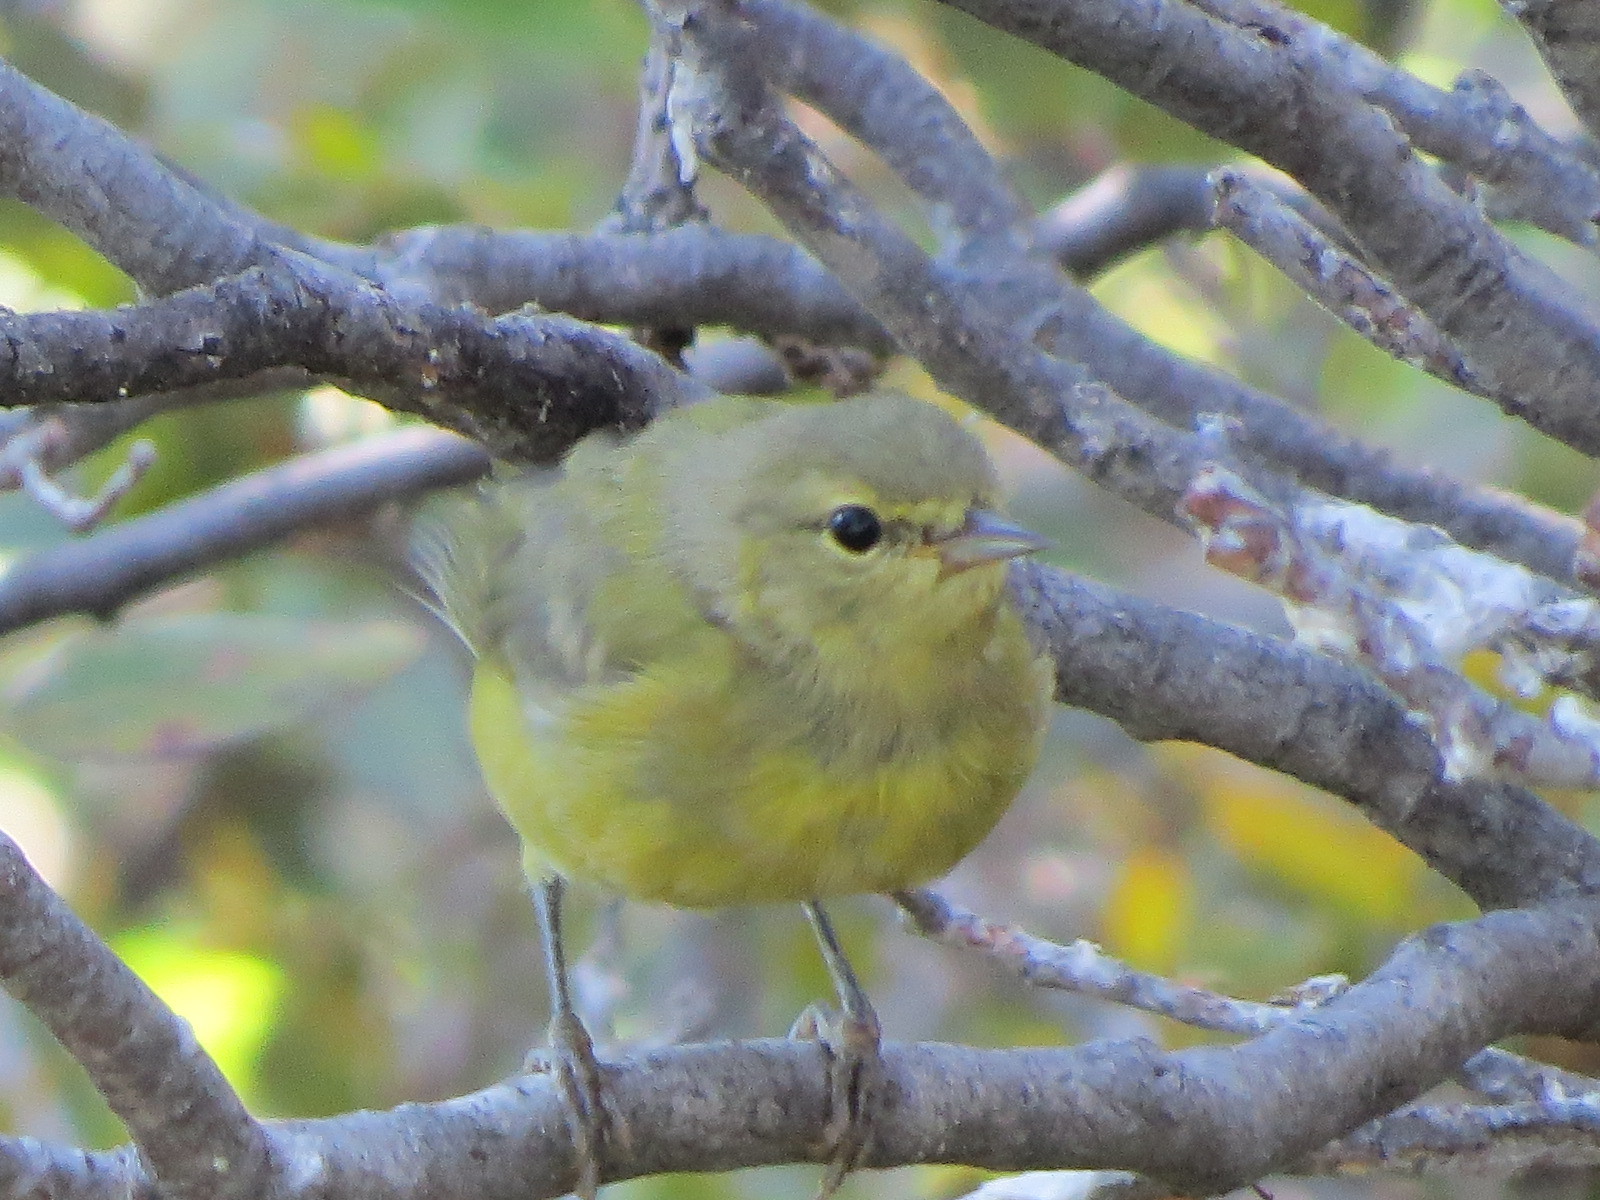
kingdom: Animalia
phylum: Chordata
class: Aves
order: Passeriformes
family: Parulidae
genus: Leiothlypis
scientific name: Leiothlypis celata
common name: Orange-crowned warbler
